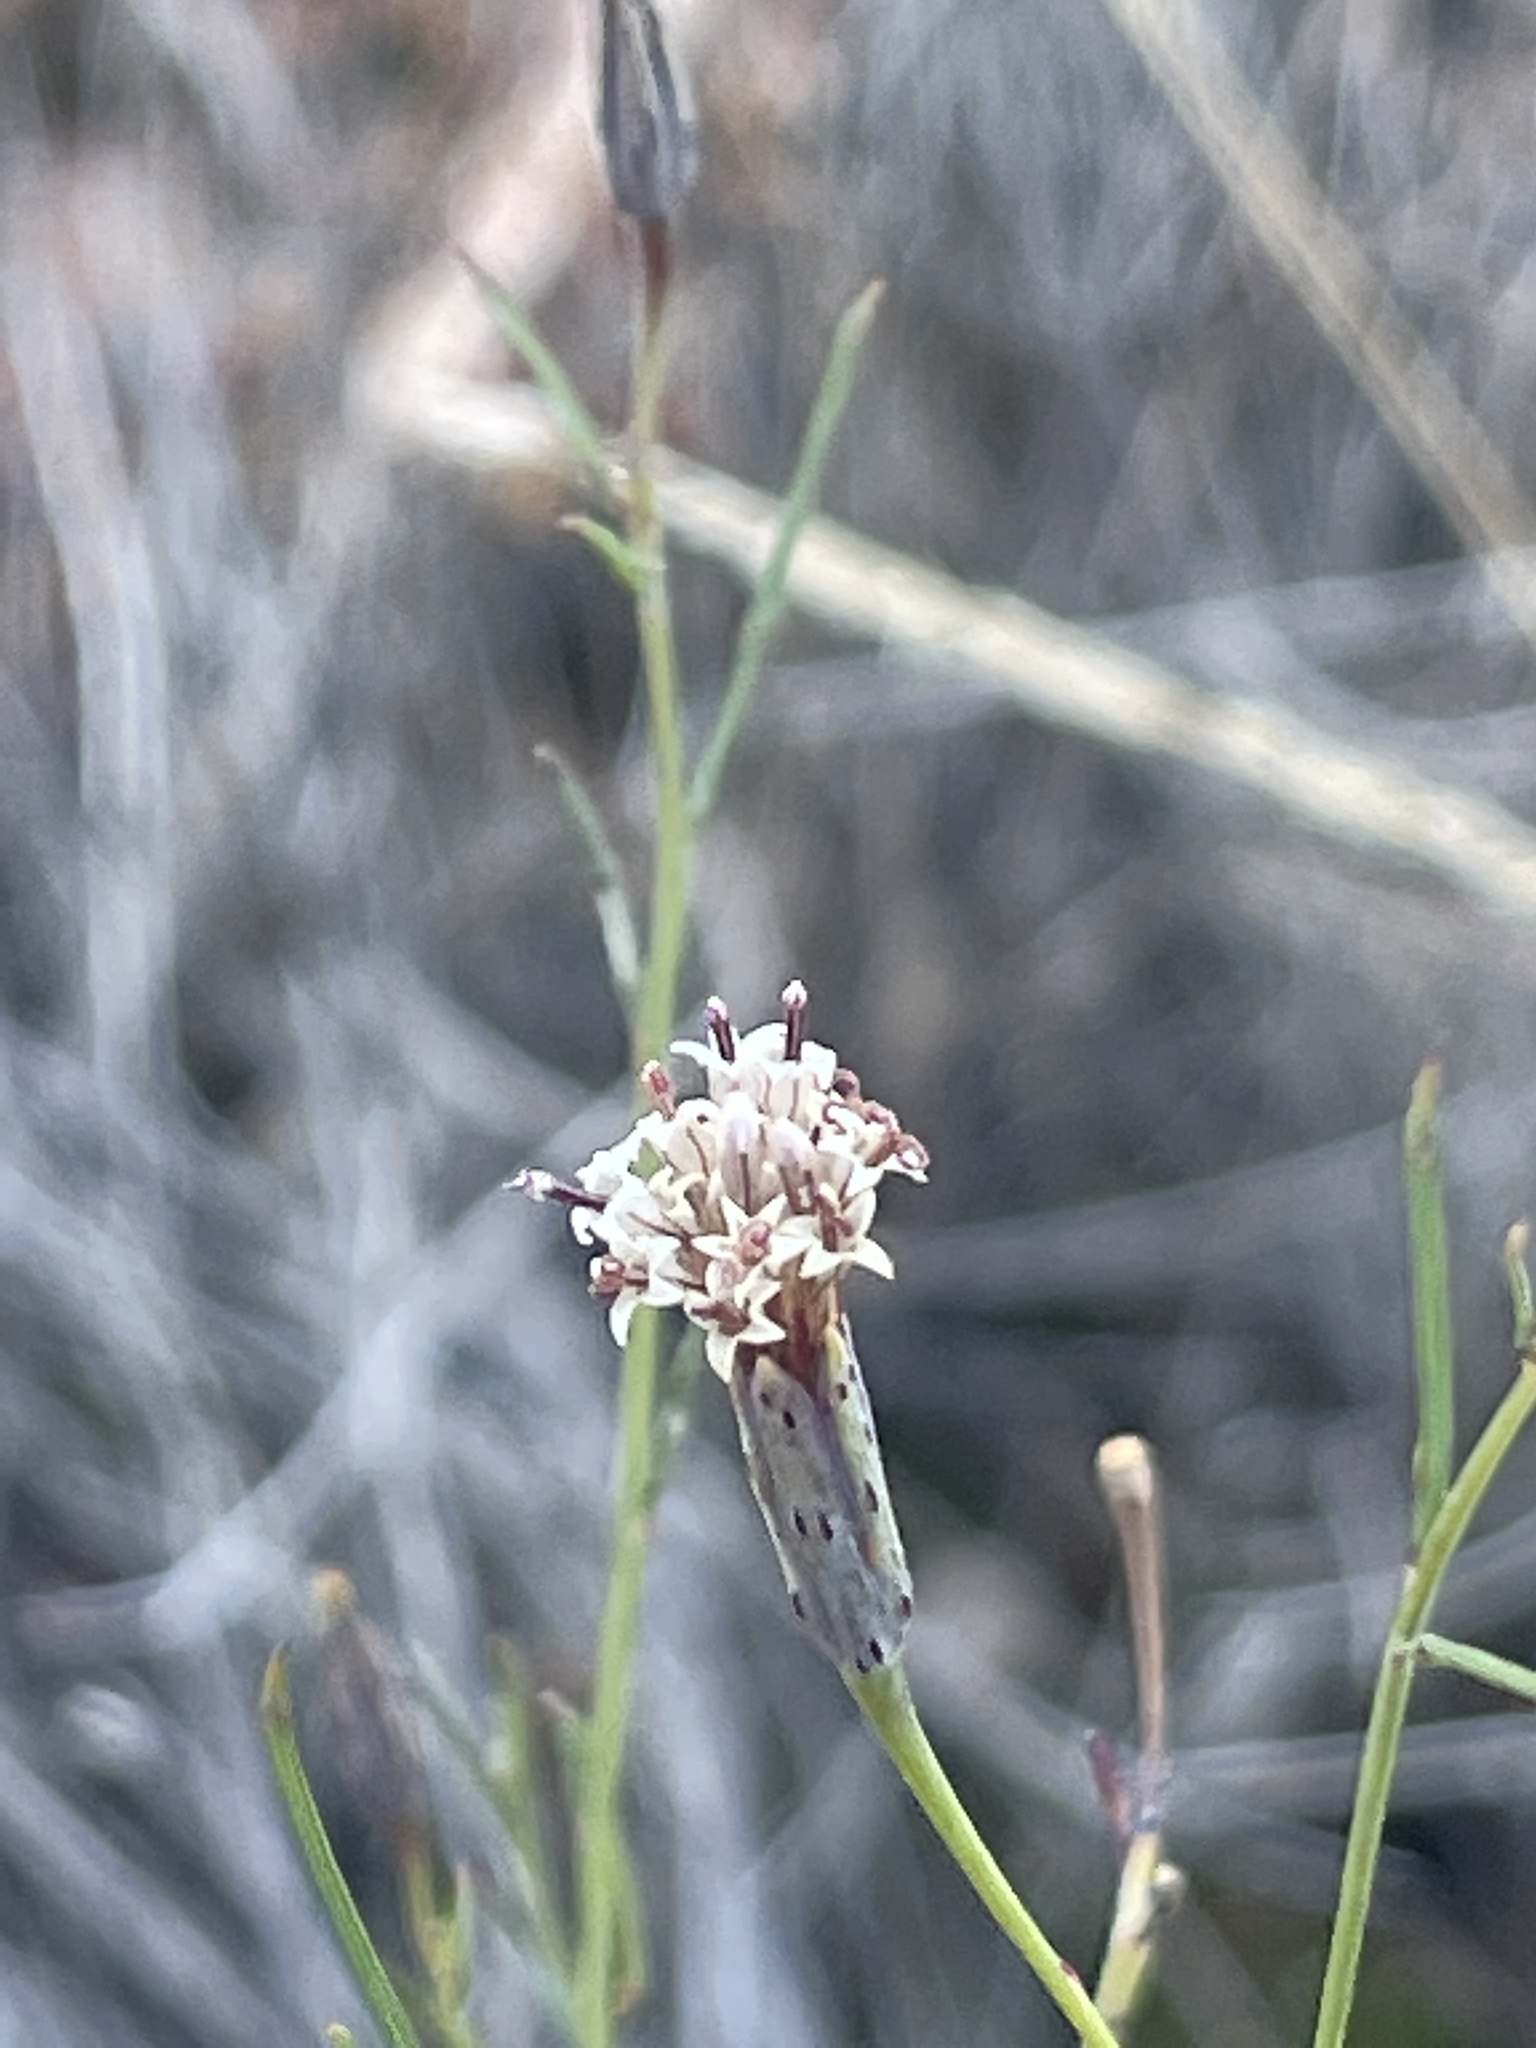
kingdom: Plantae
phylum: Tracheophyta
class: Magnoliopsida
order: Asterales
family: Asteraceae
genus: Porophyllum
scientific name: Porophyllum gracile
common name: Odora
